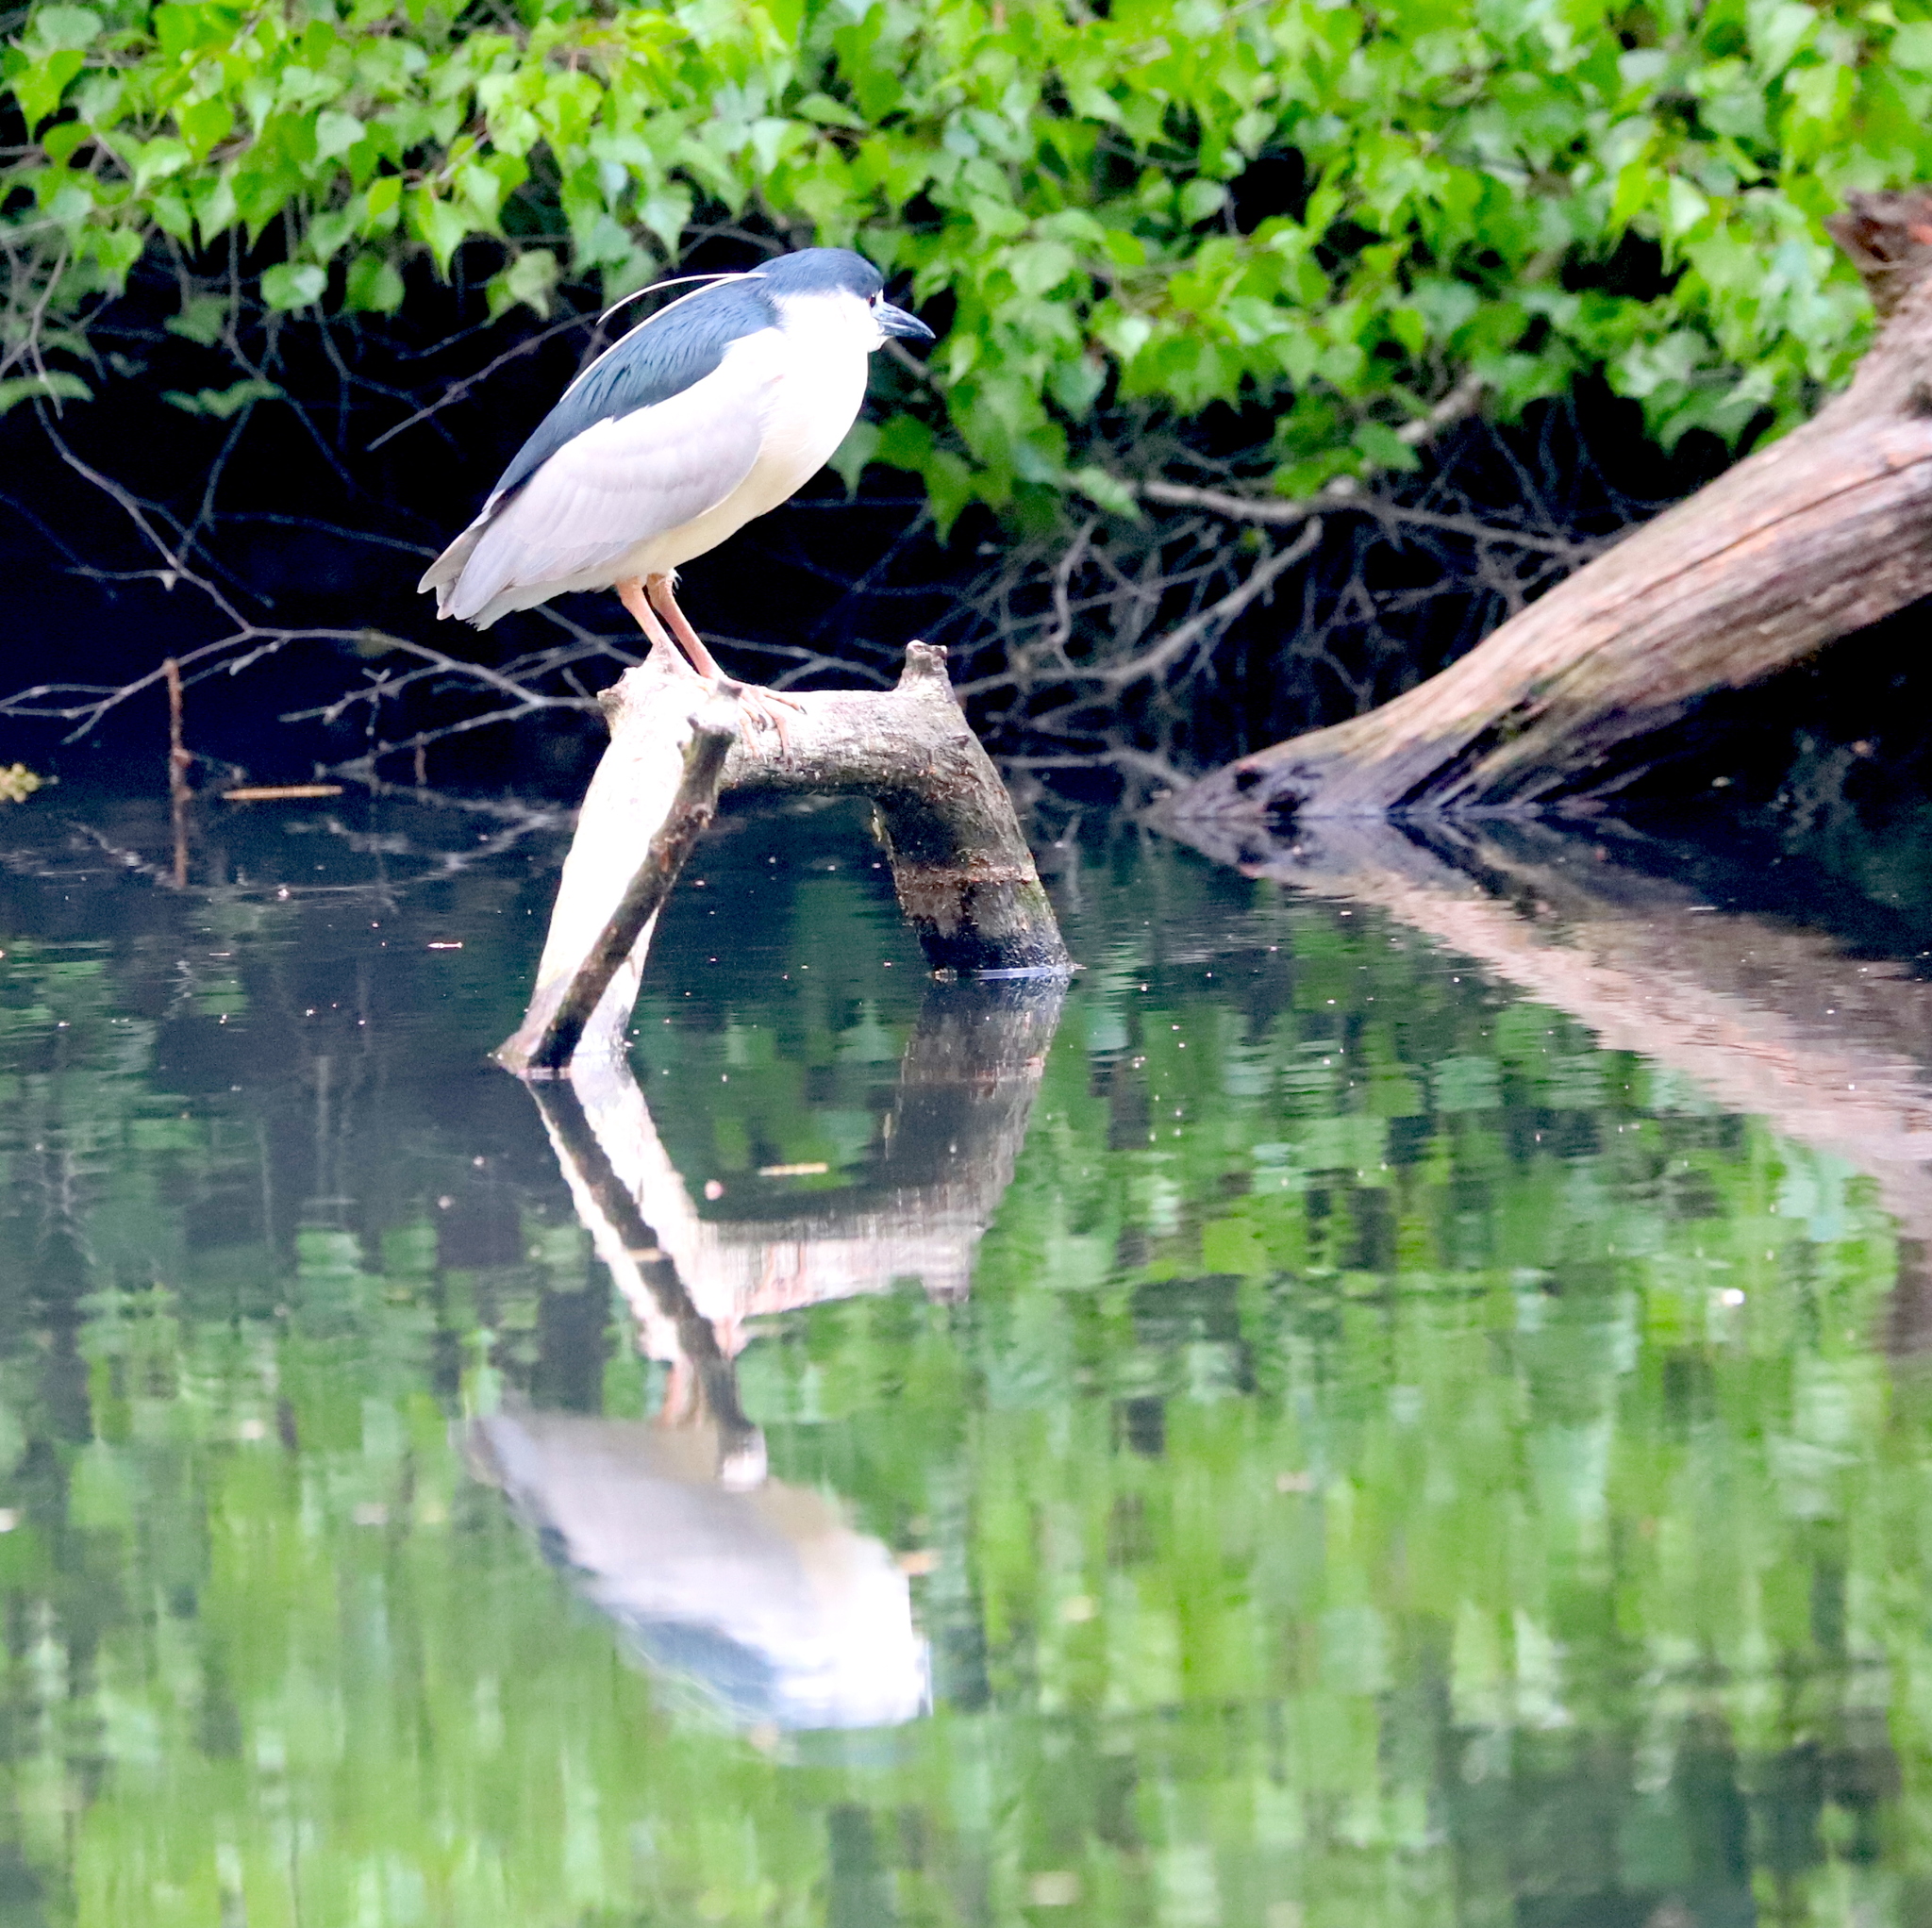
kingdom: Animalia
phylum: Chordata
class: Aves
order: Pelecaniformes
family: Ardeidae
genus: Nycticorax
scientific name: Nycticorax nycticorax
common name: Black-crowned night heron
